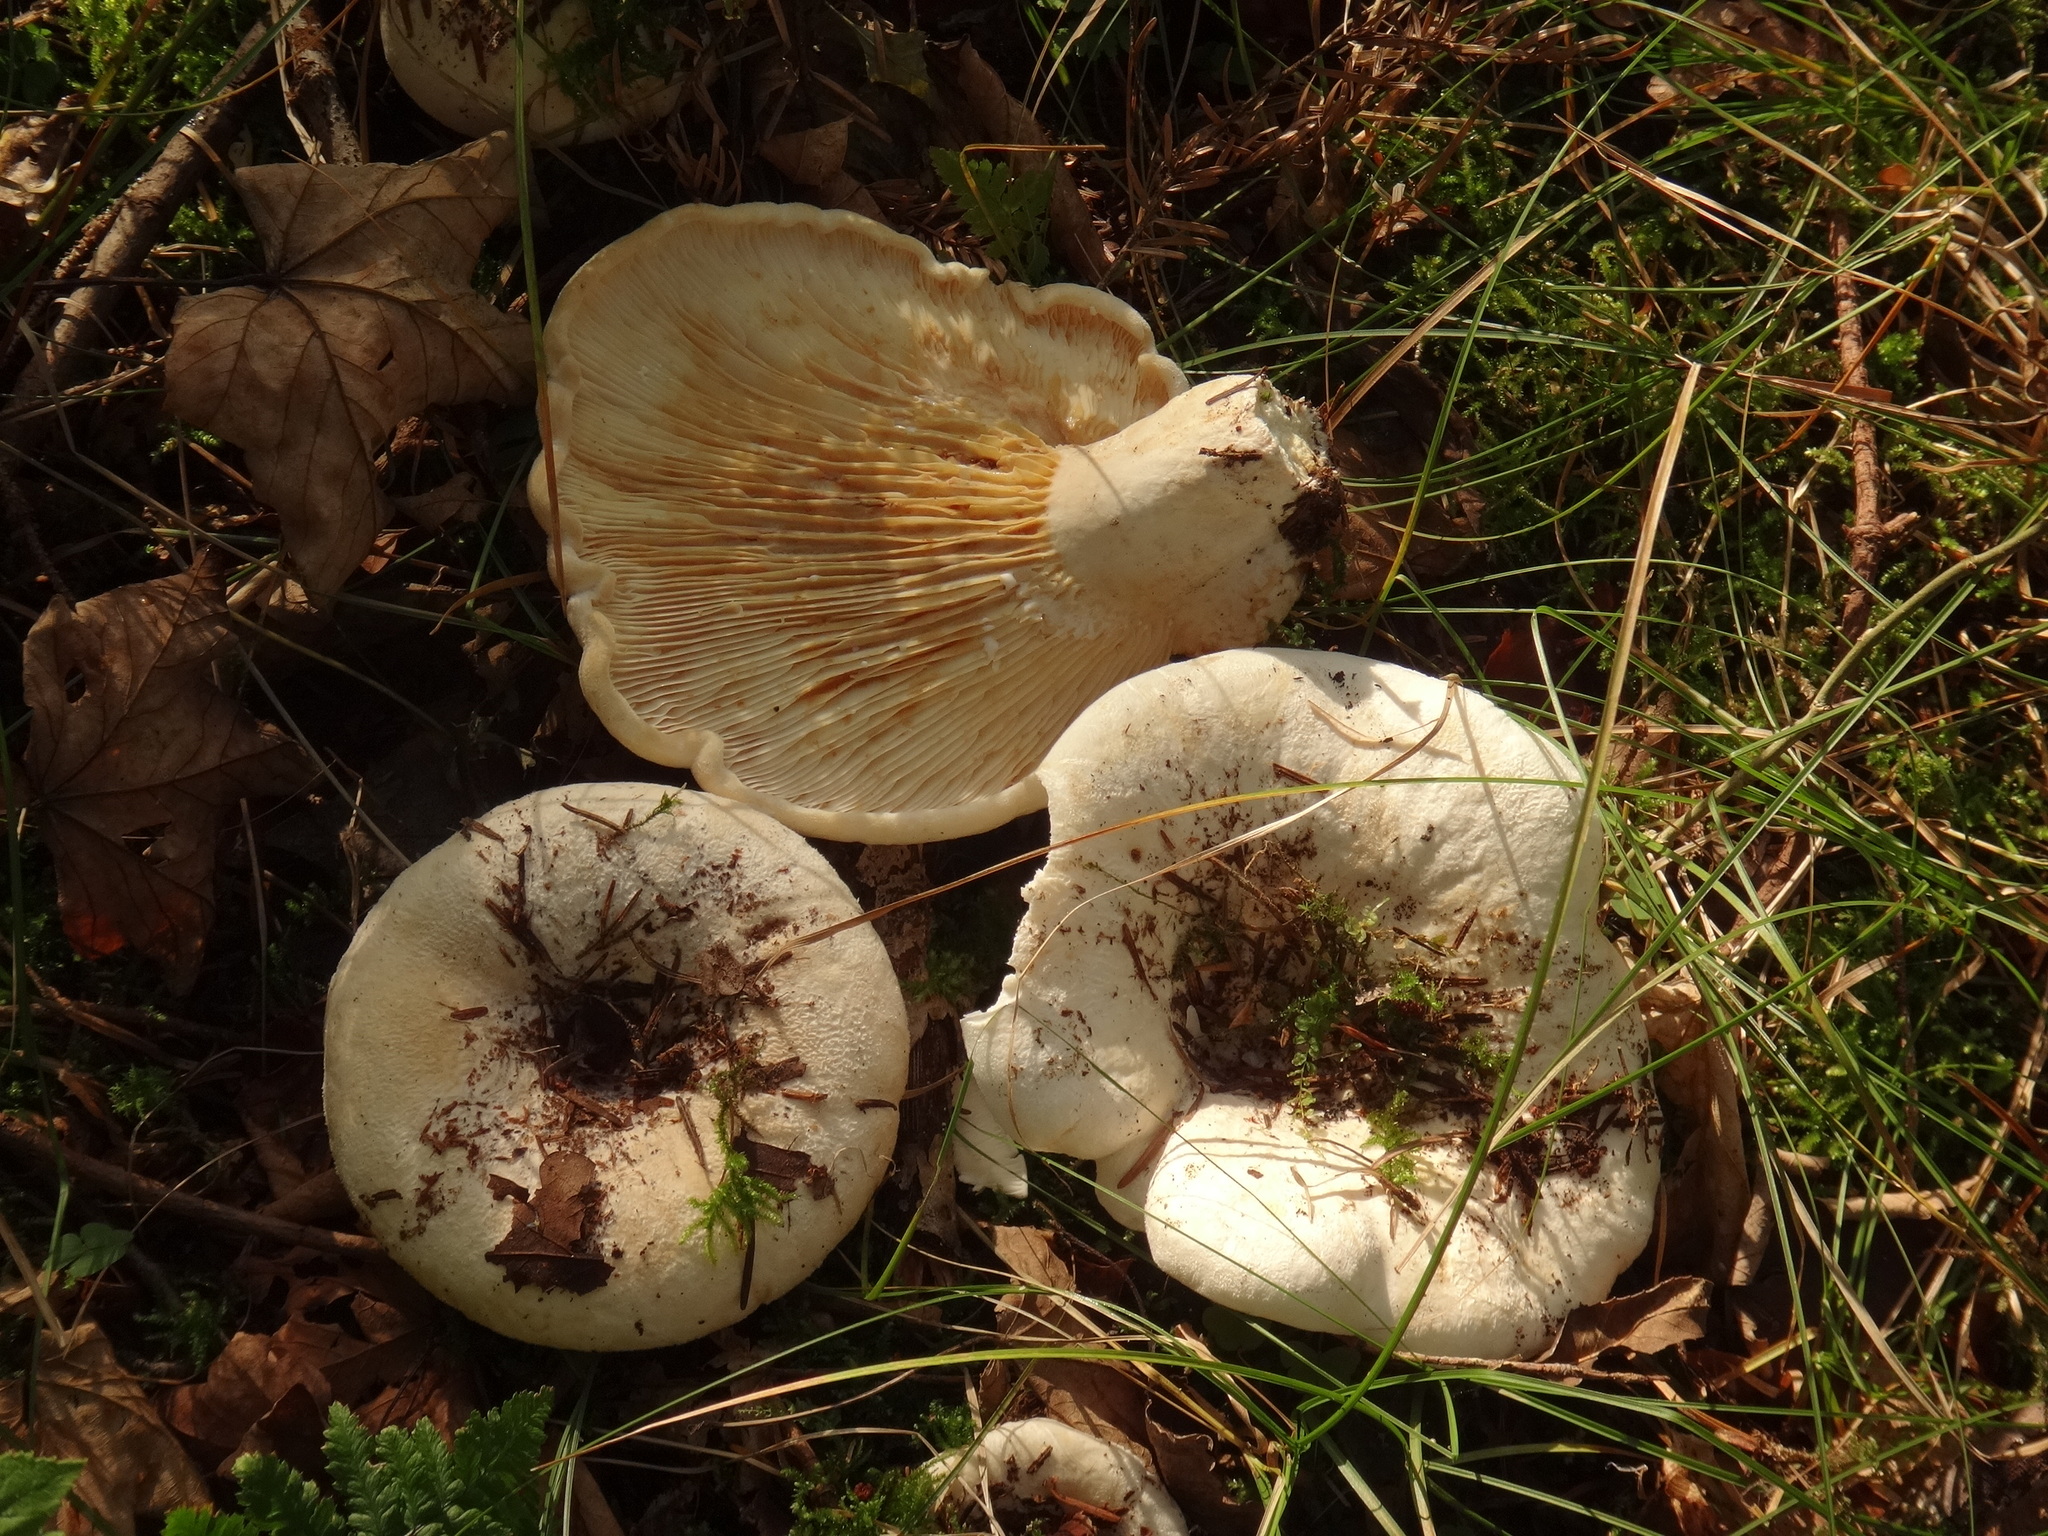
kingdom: Fungi
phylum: Basidiomycota
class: Agaricomycetes
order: Russulales
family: Russulaceae
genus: Lactifluus
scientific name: Lactifluus vellereus
